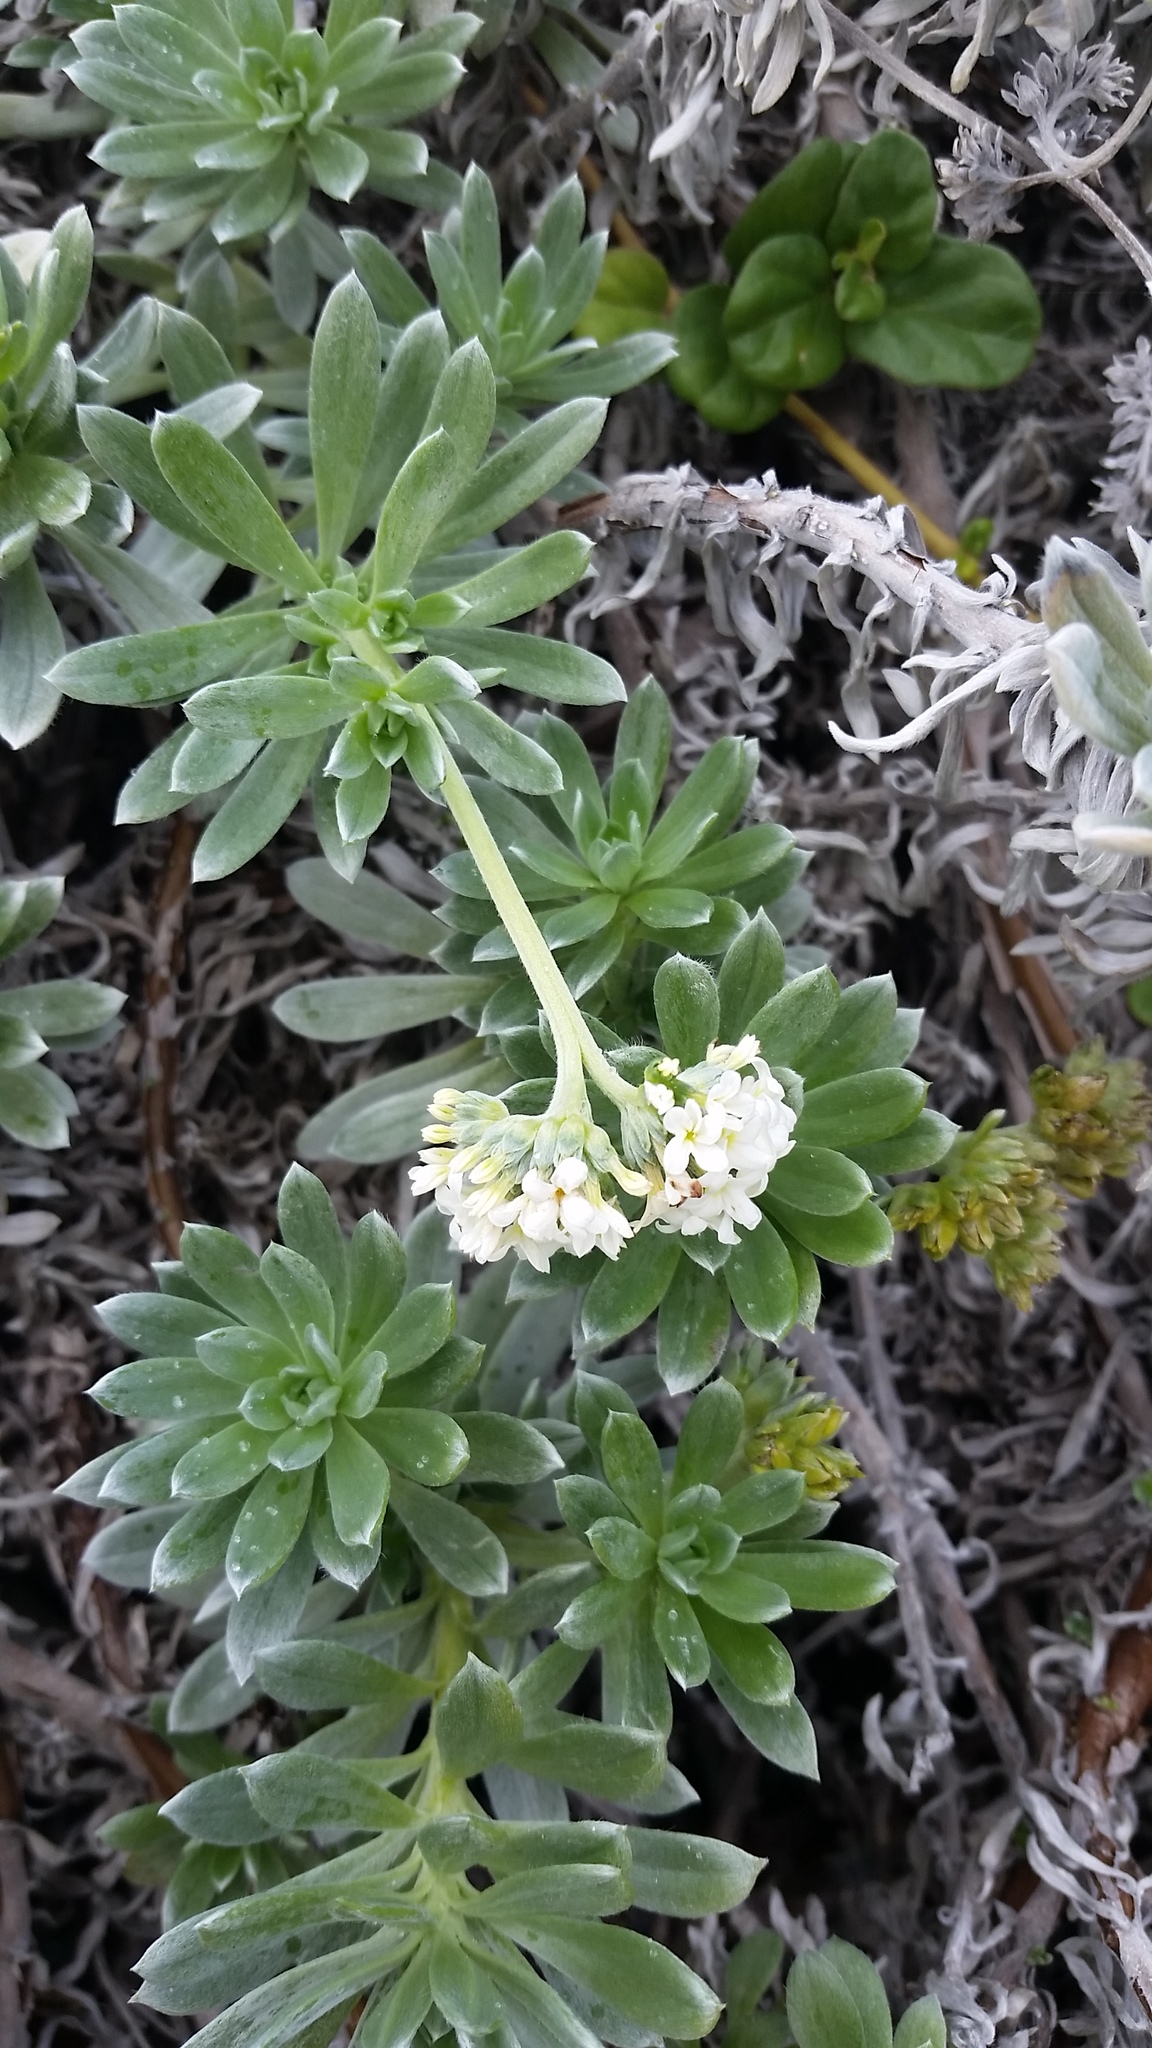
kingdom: Plantae
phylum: Tracheophyta
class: Magnoliopsida
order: Boraginales
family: Heliotropiaceae
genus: Heliotropium
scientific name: Heliotropium anomalum
